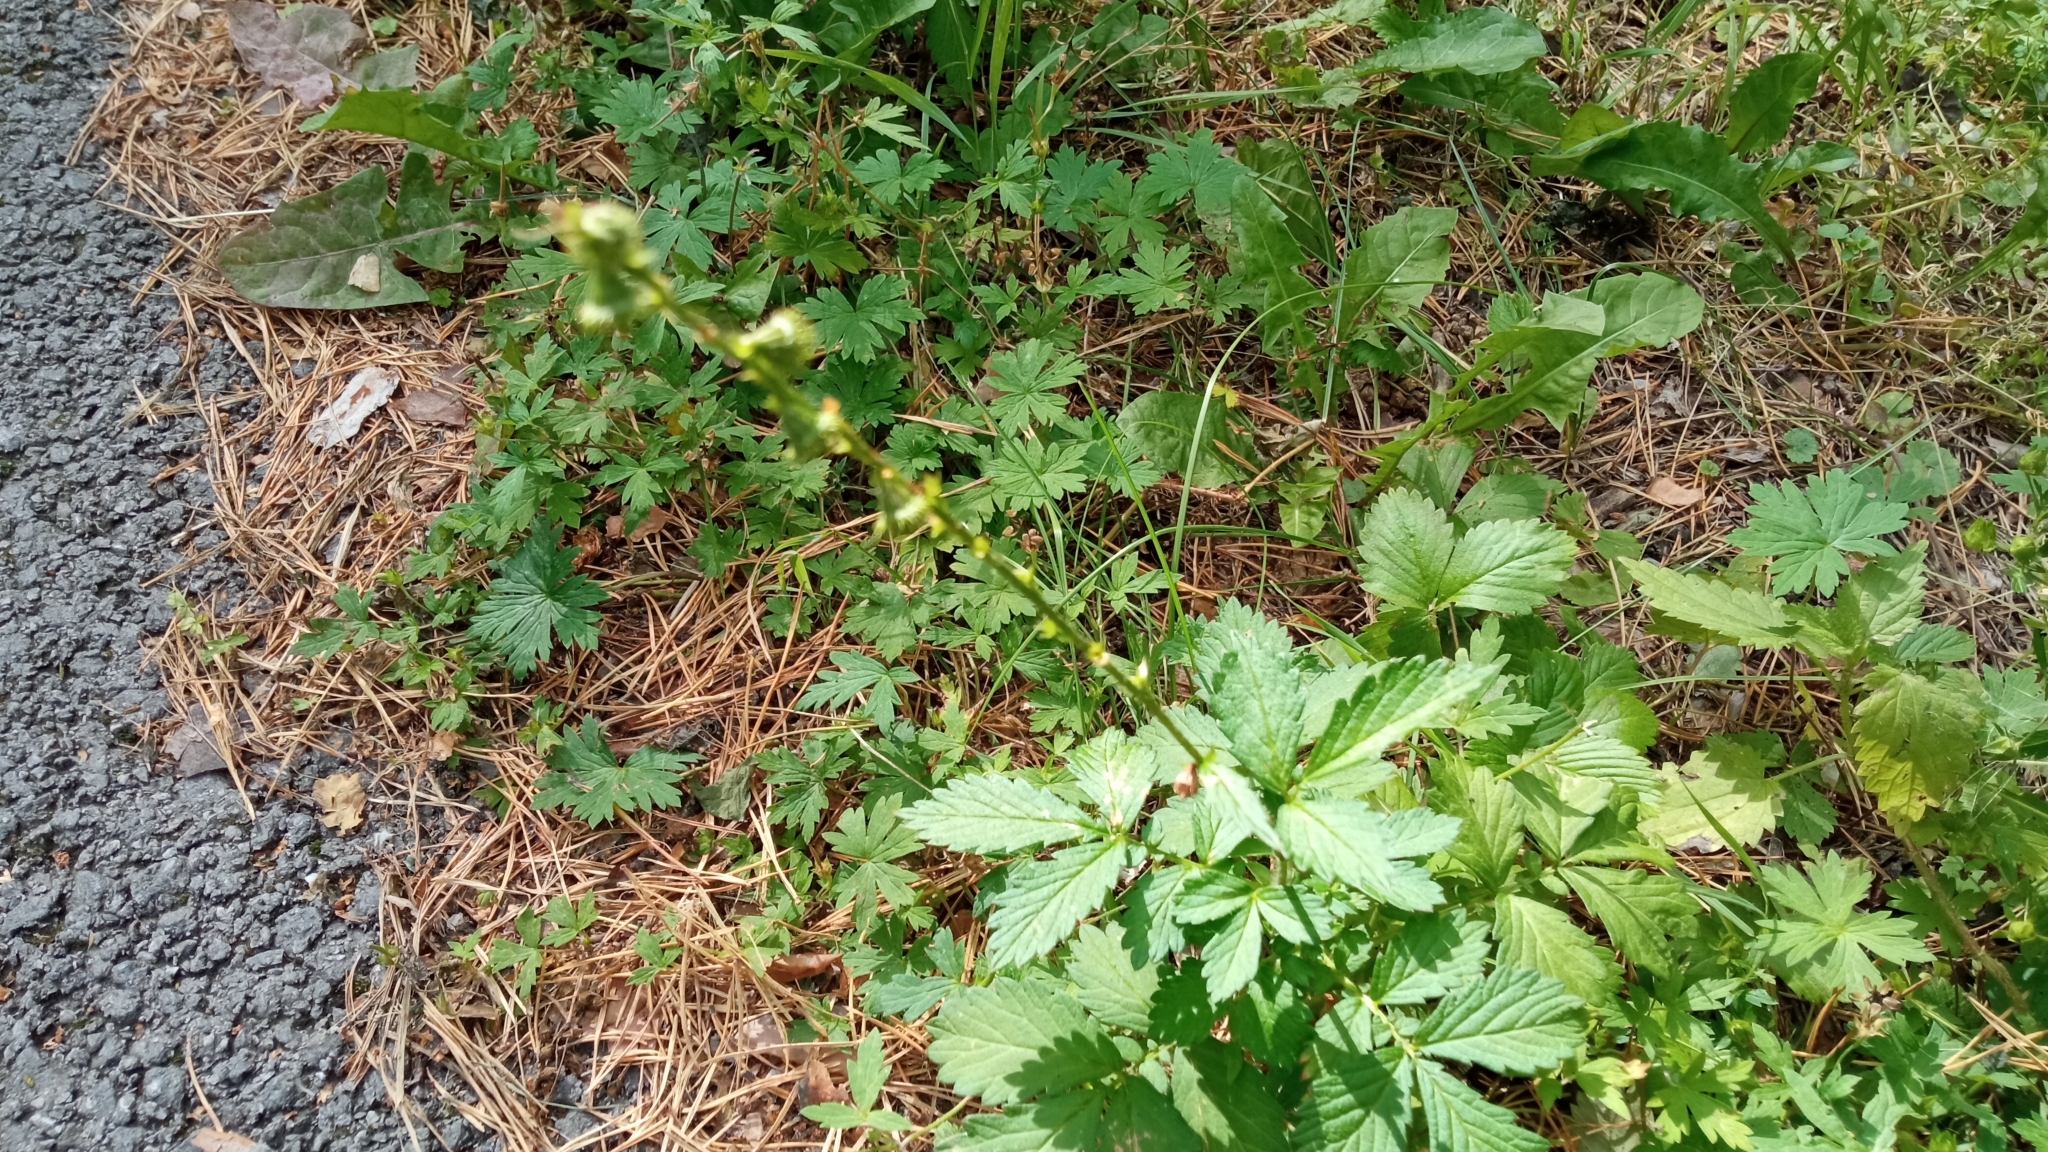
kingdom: Plantae
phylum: Tracheophyta
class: Magnoliopsida
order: Rosales
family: Rosaceae
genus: Agrimonia
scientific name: Agrimonia pilosa
